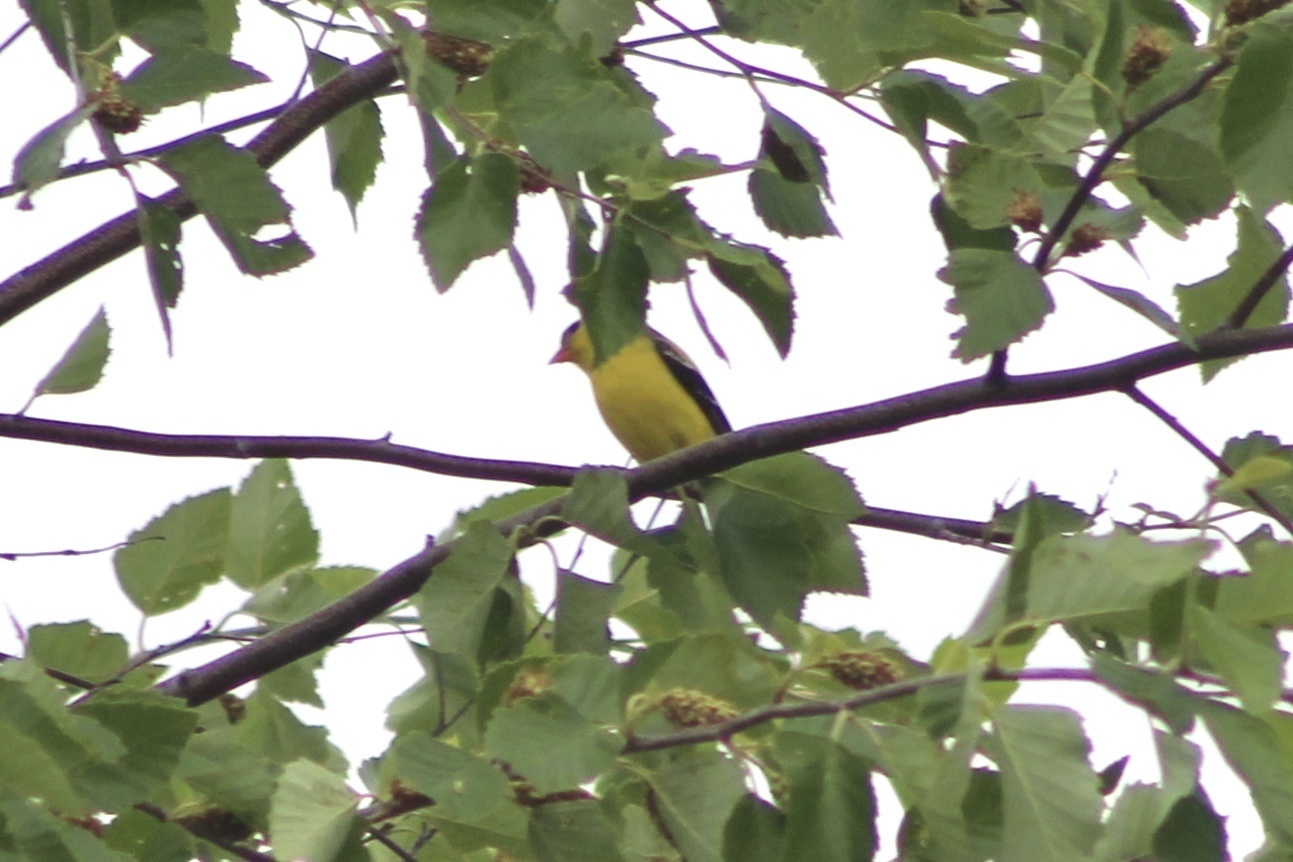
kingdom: Animalia
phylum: Chordata
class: Aves
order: Passeriformes
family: Fringillidae
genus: Spinus
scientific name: Spinus tristis
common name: American goldfinch
